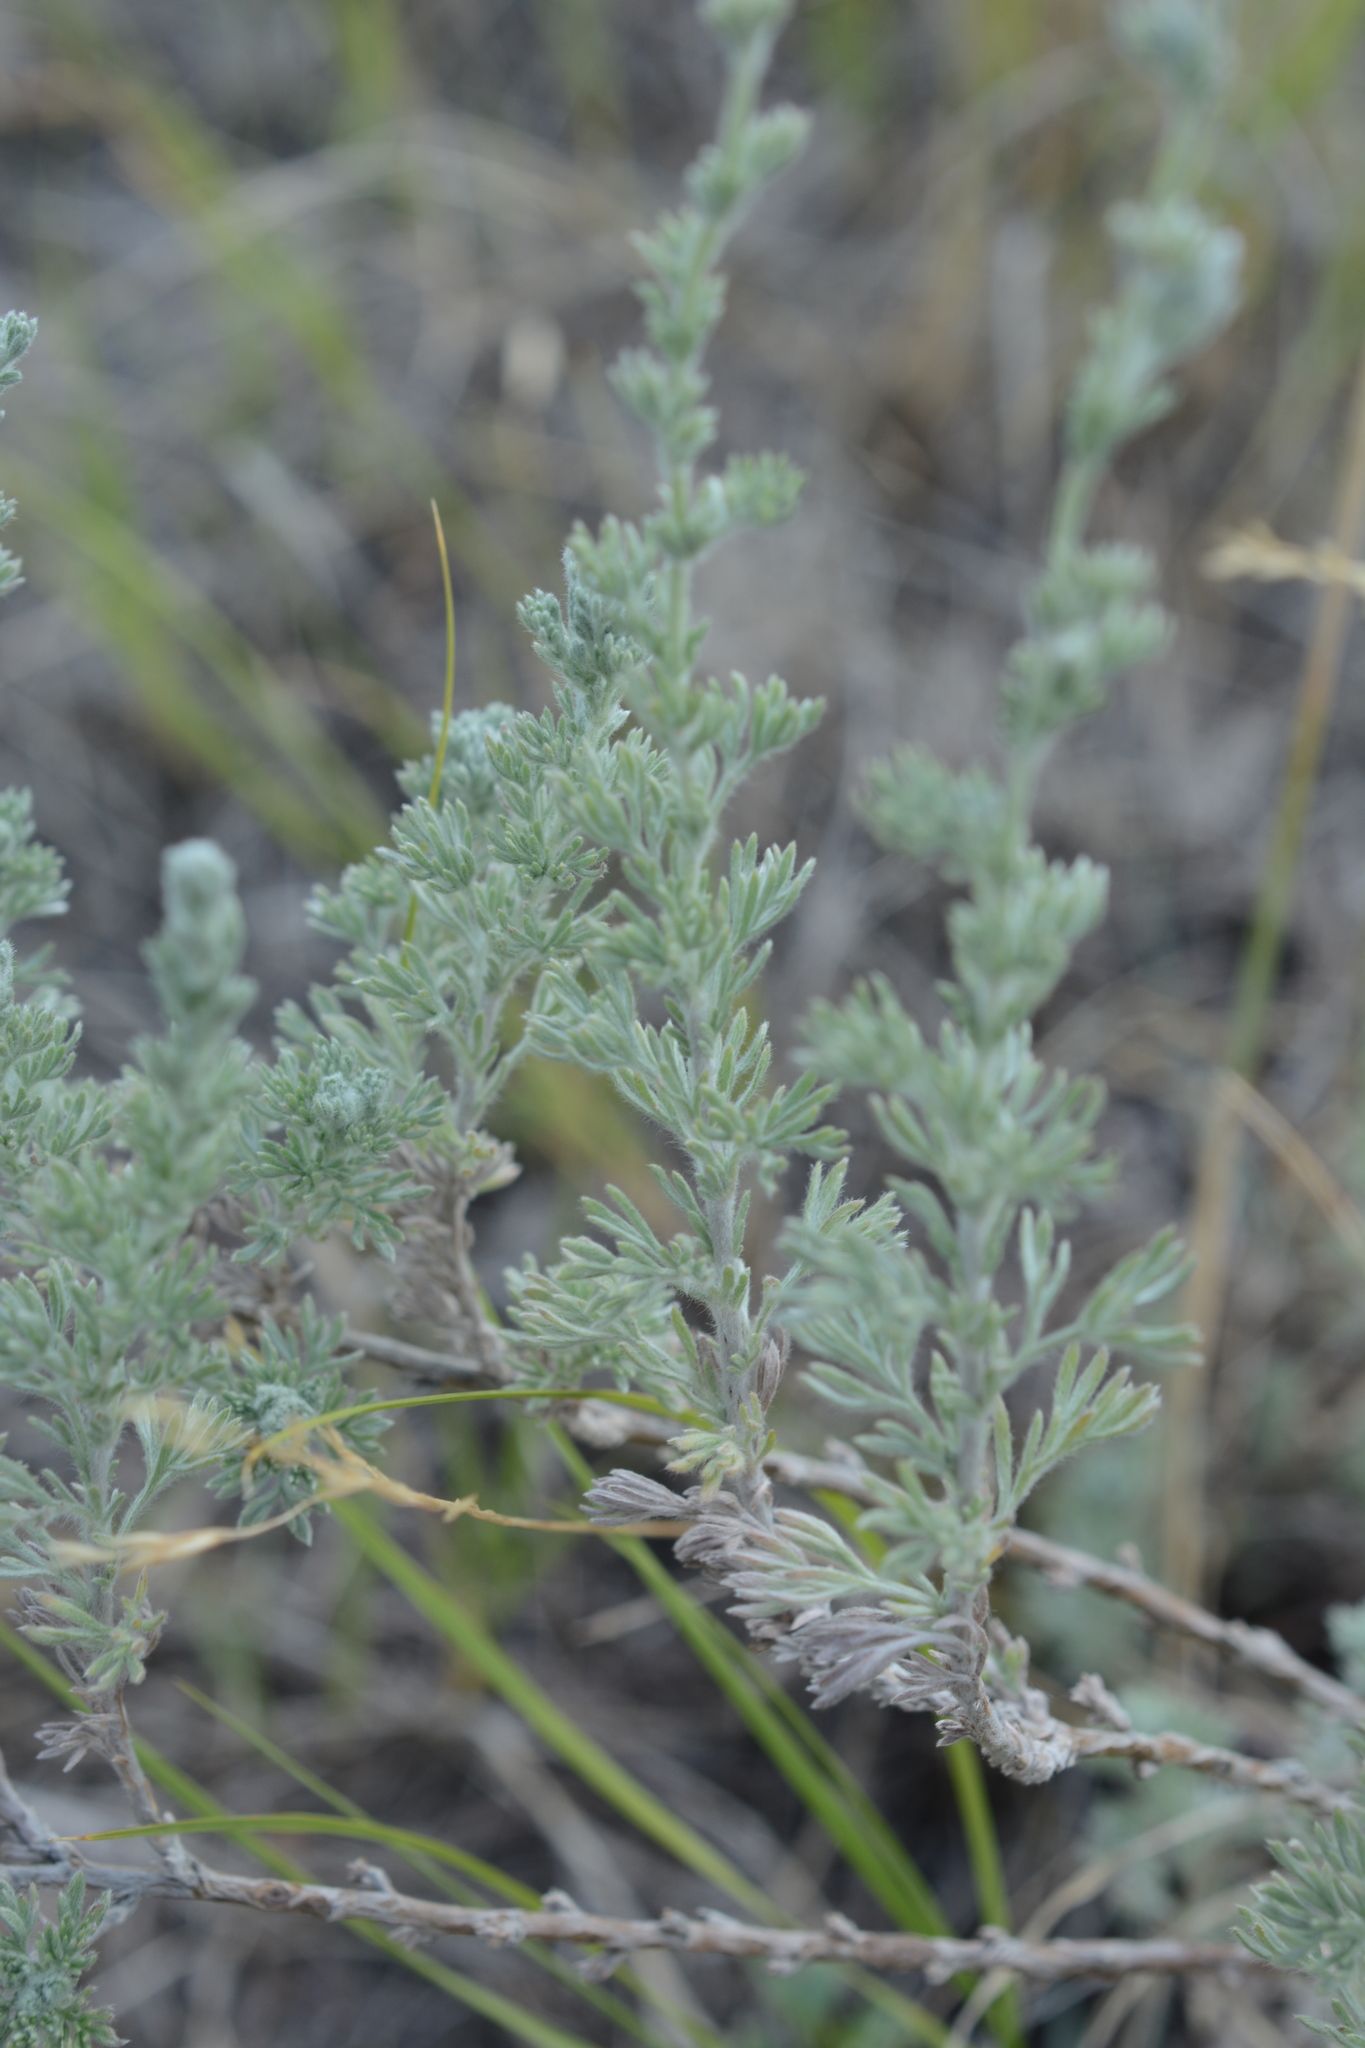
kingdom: Plantae
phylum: Tracheophyta
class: Magnoliopsida
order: Asterales
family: Asteraceae
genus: Artemisia
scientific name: Artemisia frigida
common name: Prairie sagewort
